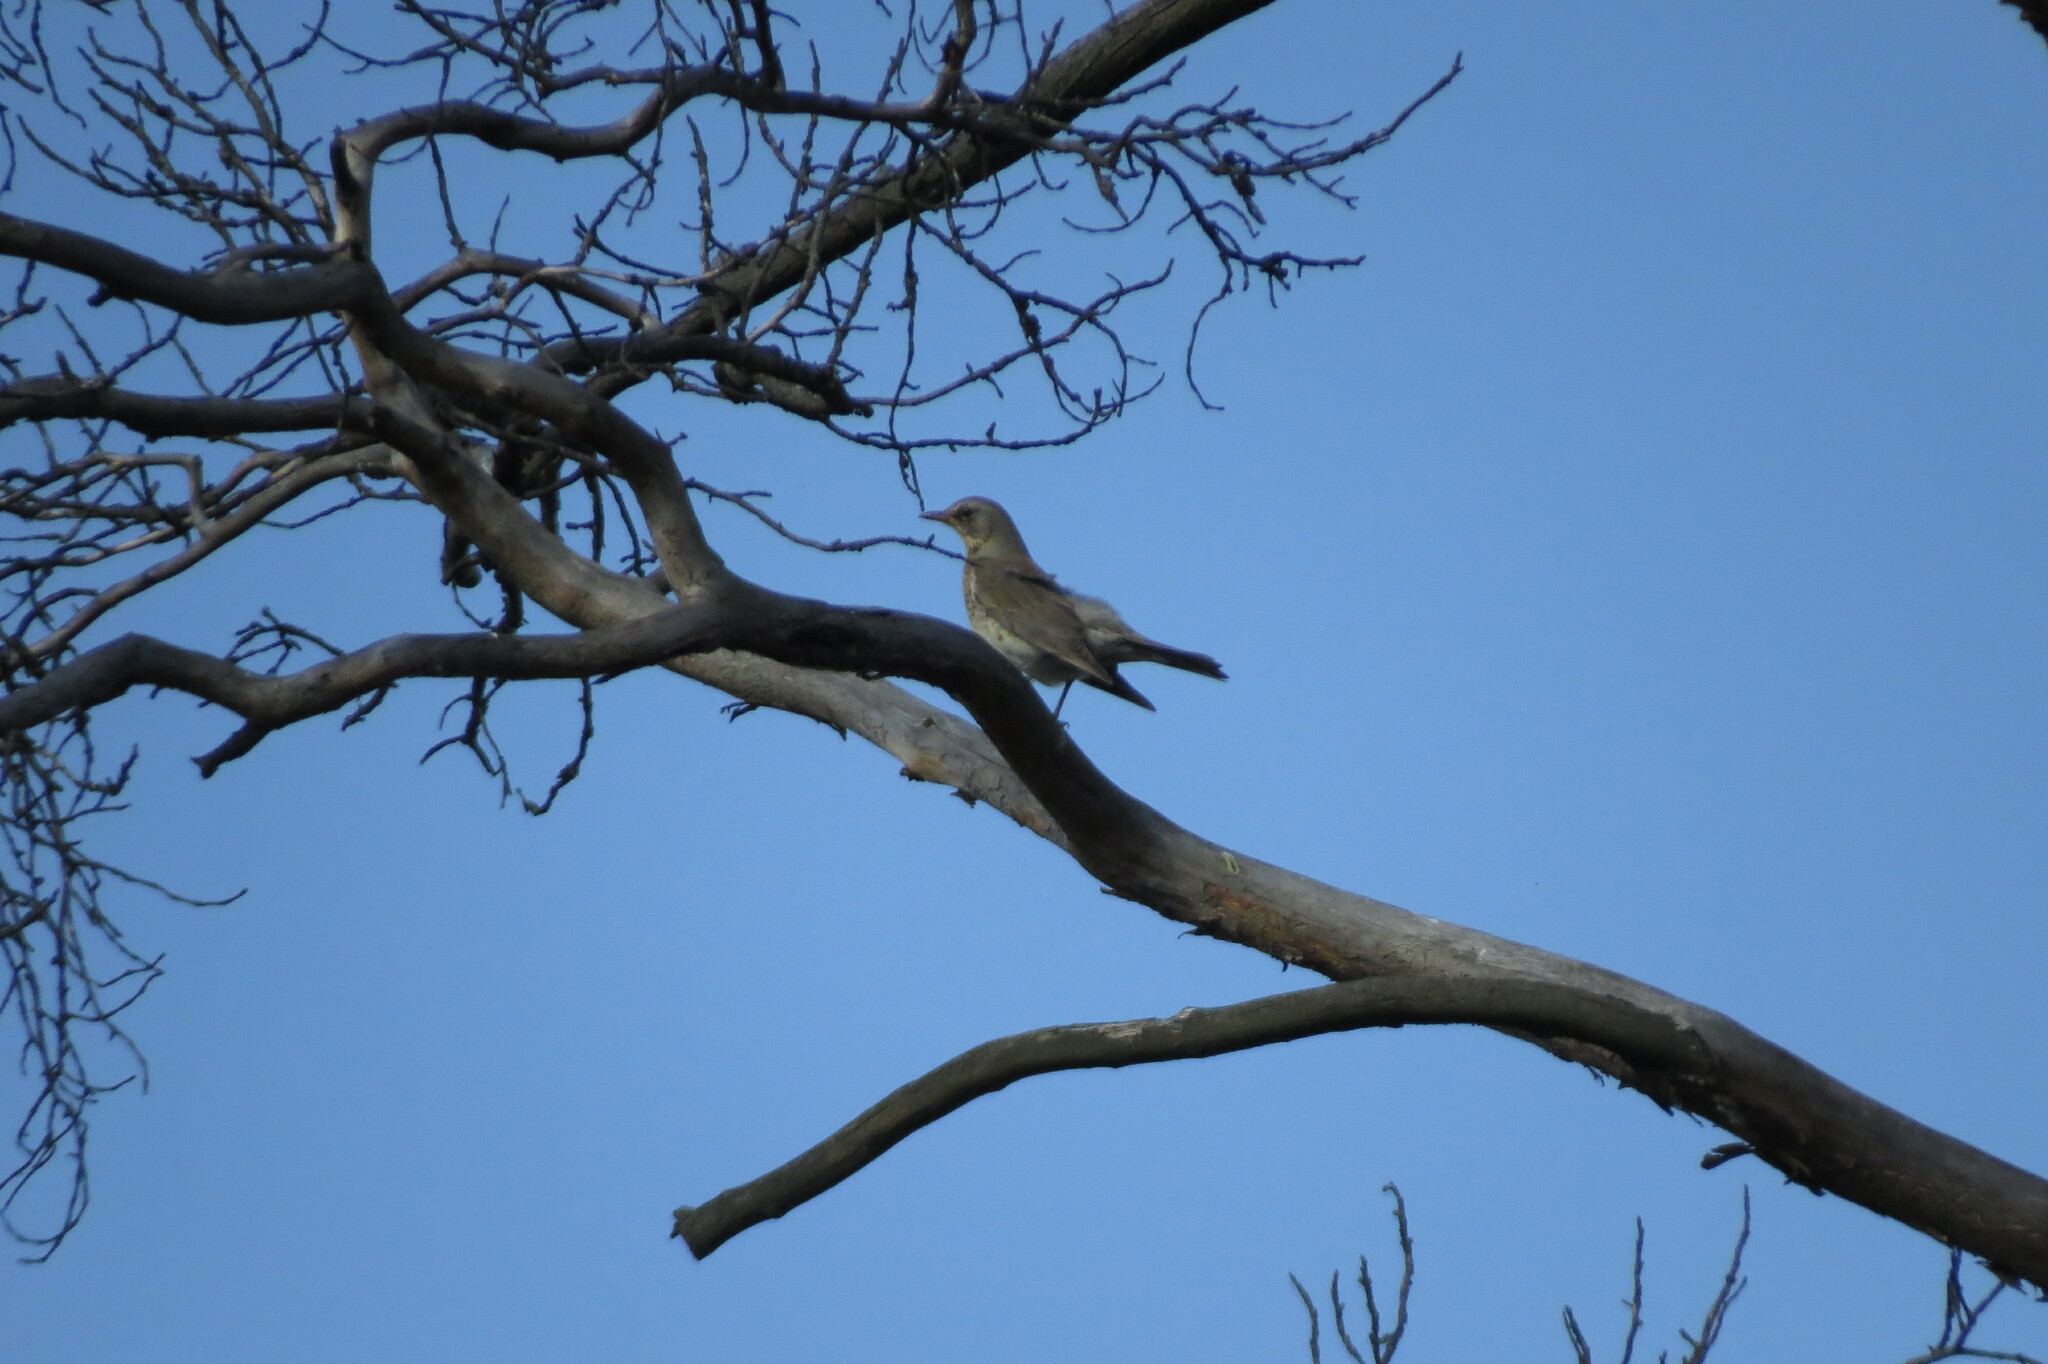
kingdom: Animalia
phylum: Chordata
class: Aves
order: Passeriformes
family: Turdidae
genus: Turdus
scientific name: Turdus pilaris
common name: Fieldfare
